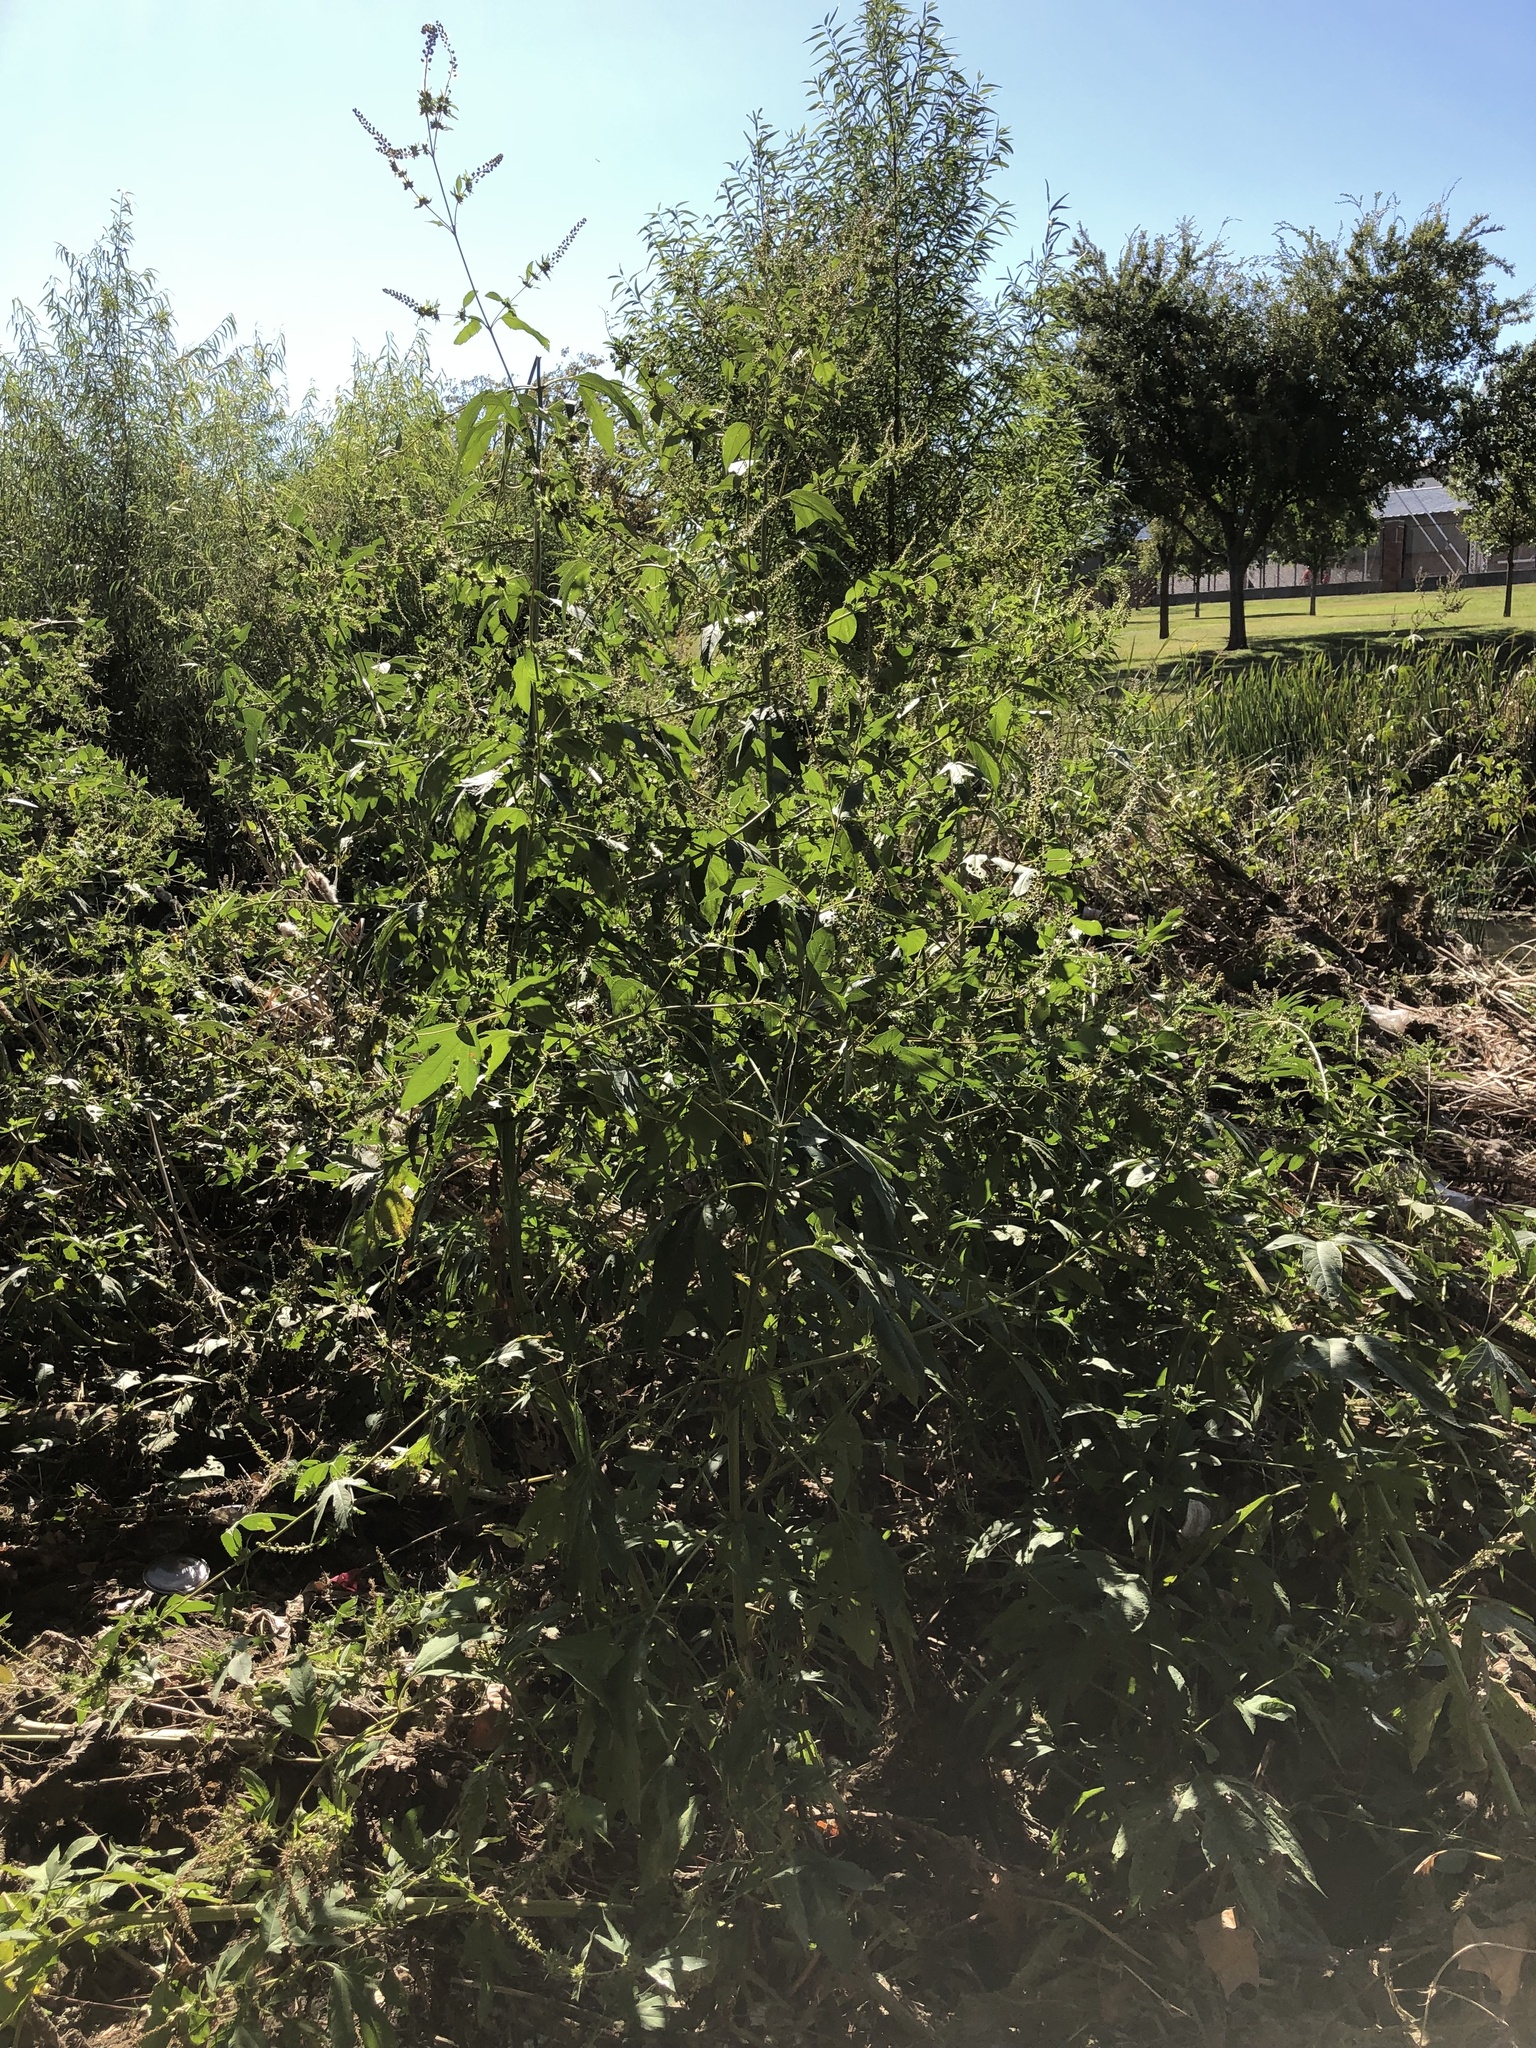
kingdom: Plantae
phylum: Tracheophyta
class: Magnoliopsida
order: Asterales
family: Asteraceae
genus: Ambrosia
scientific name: Ambrosia trifida
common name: Giant ragweed
